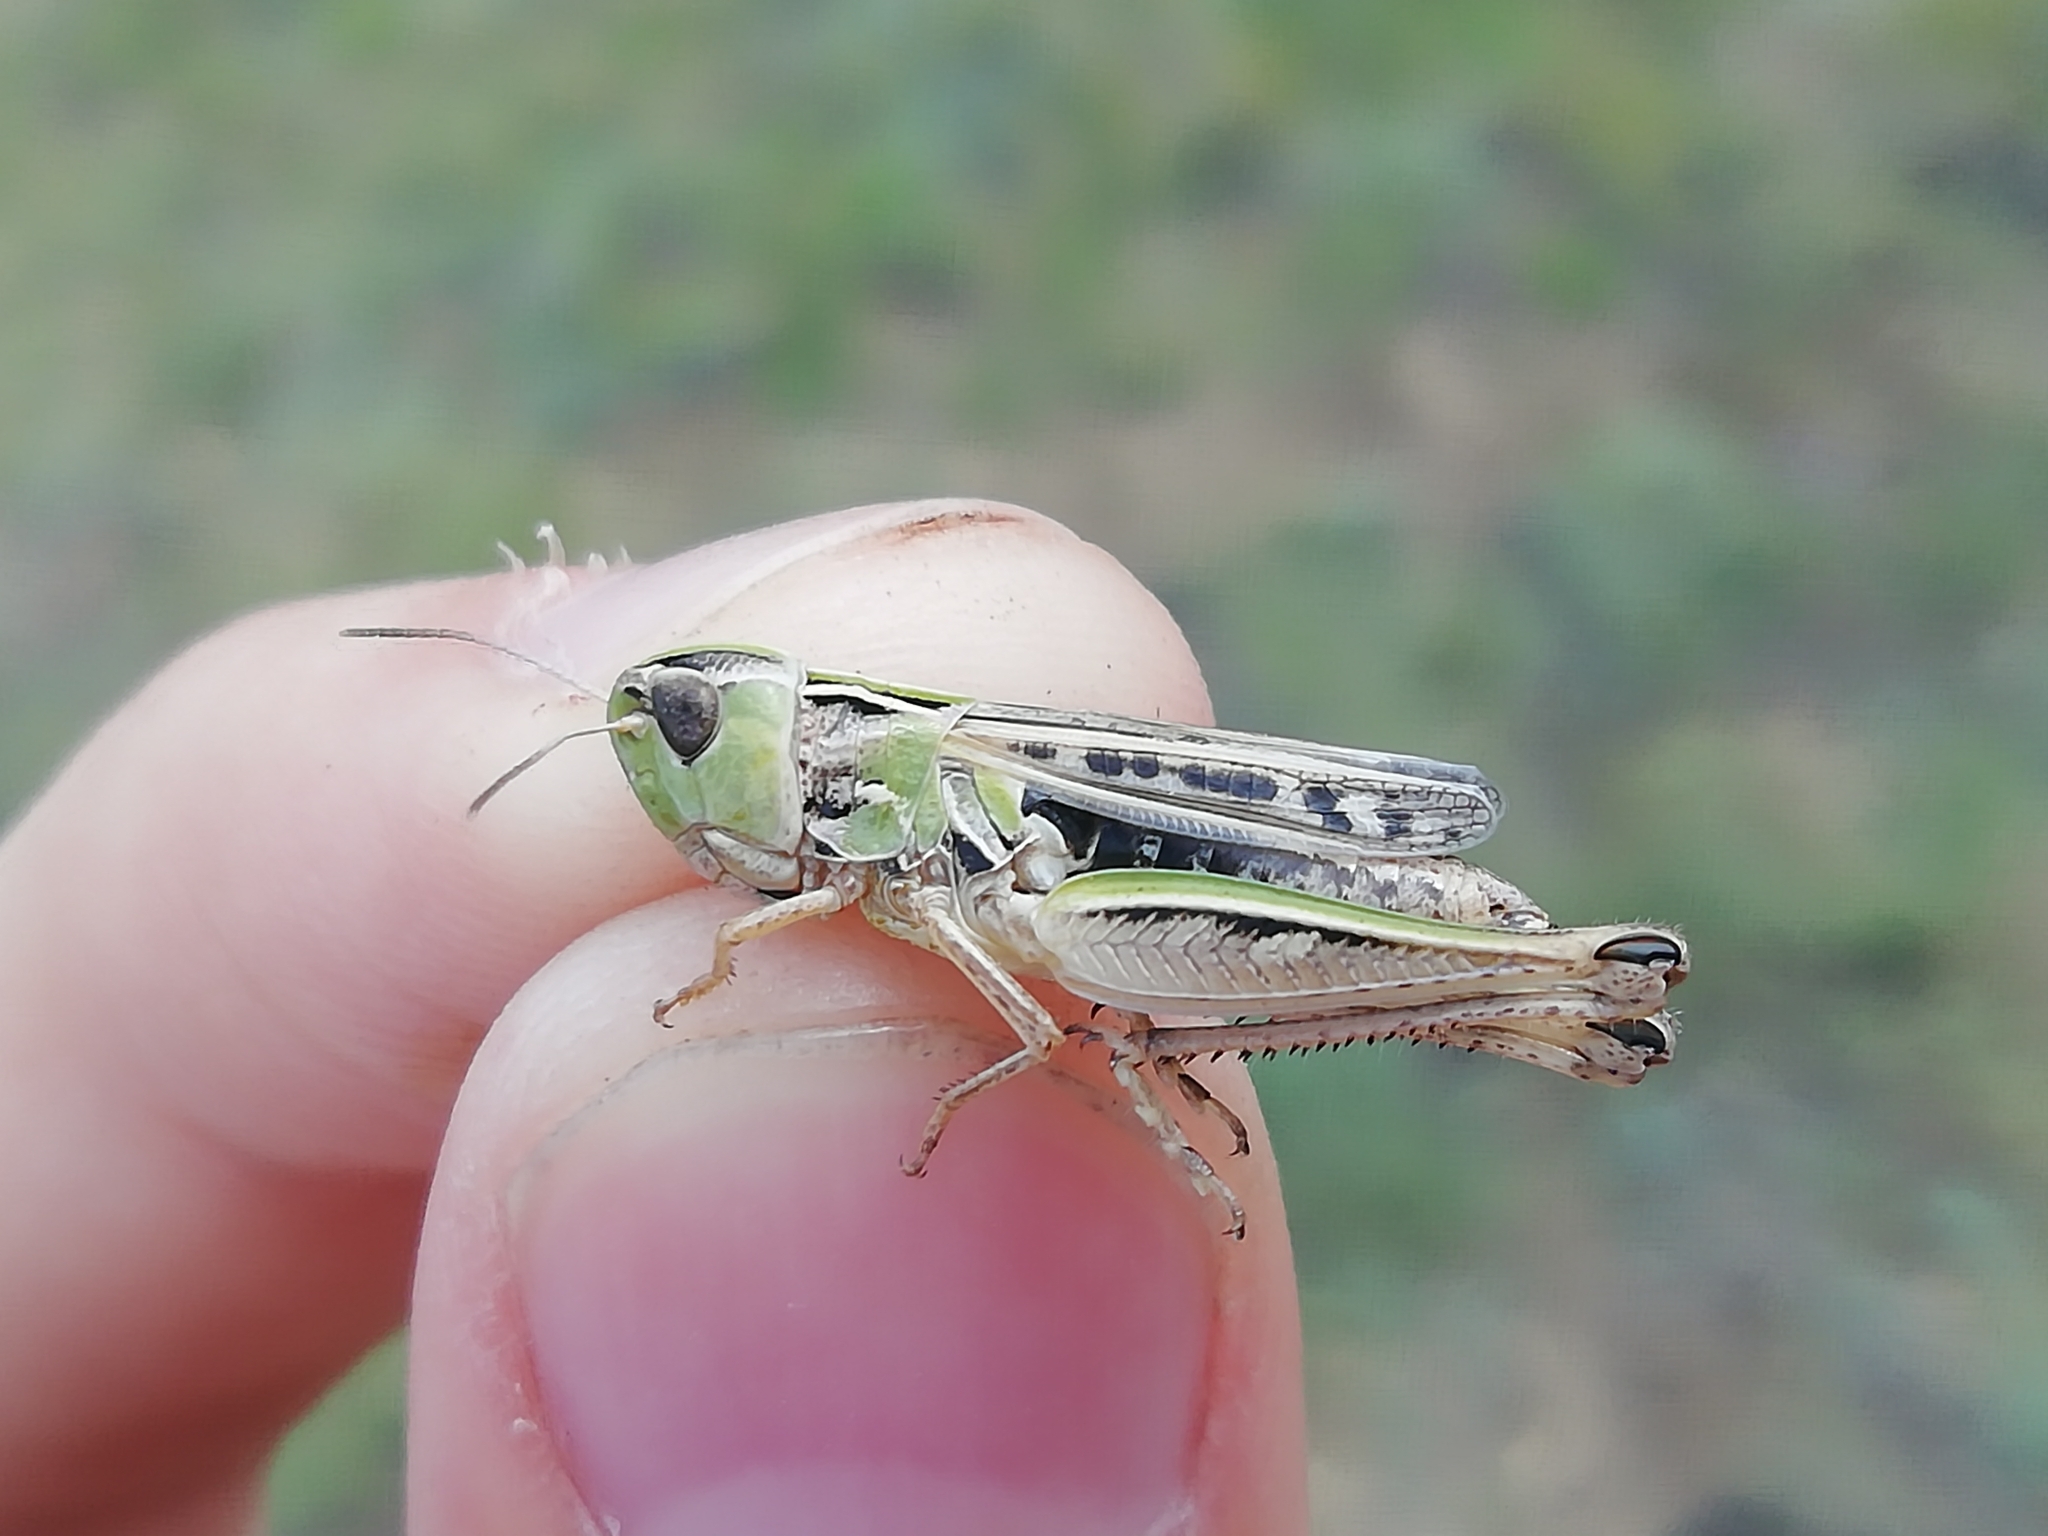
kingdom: Animalia
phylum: Arthropoda
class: Insecta
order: Orthoptera
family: Acrididae
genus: Stenobothrus
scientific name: Stenobothrus nigromaculatus
